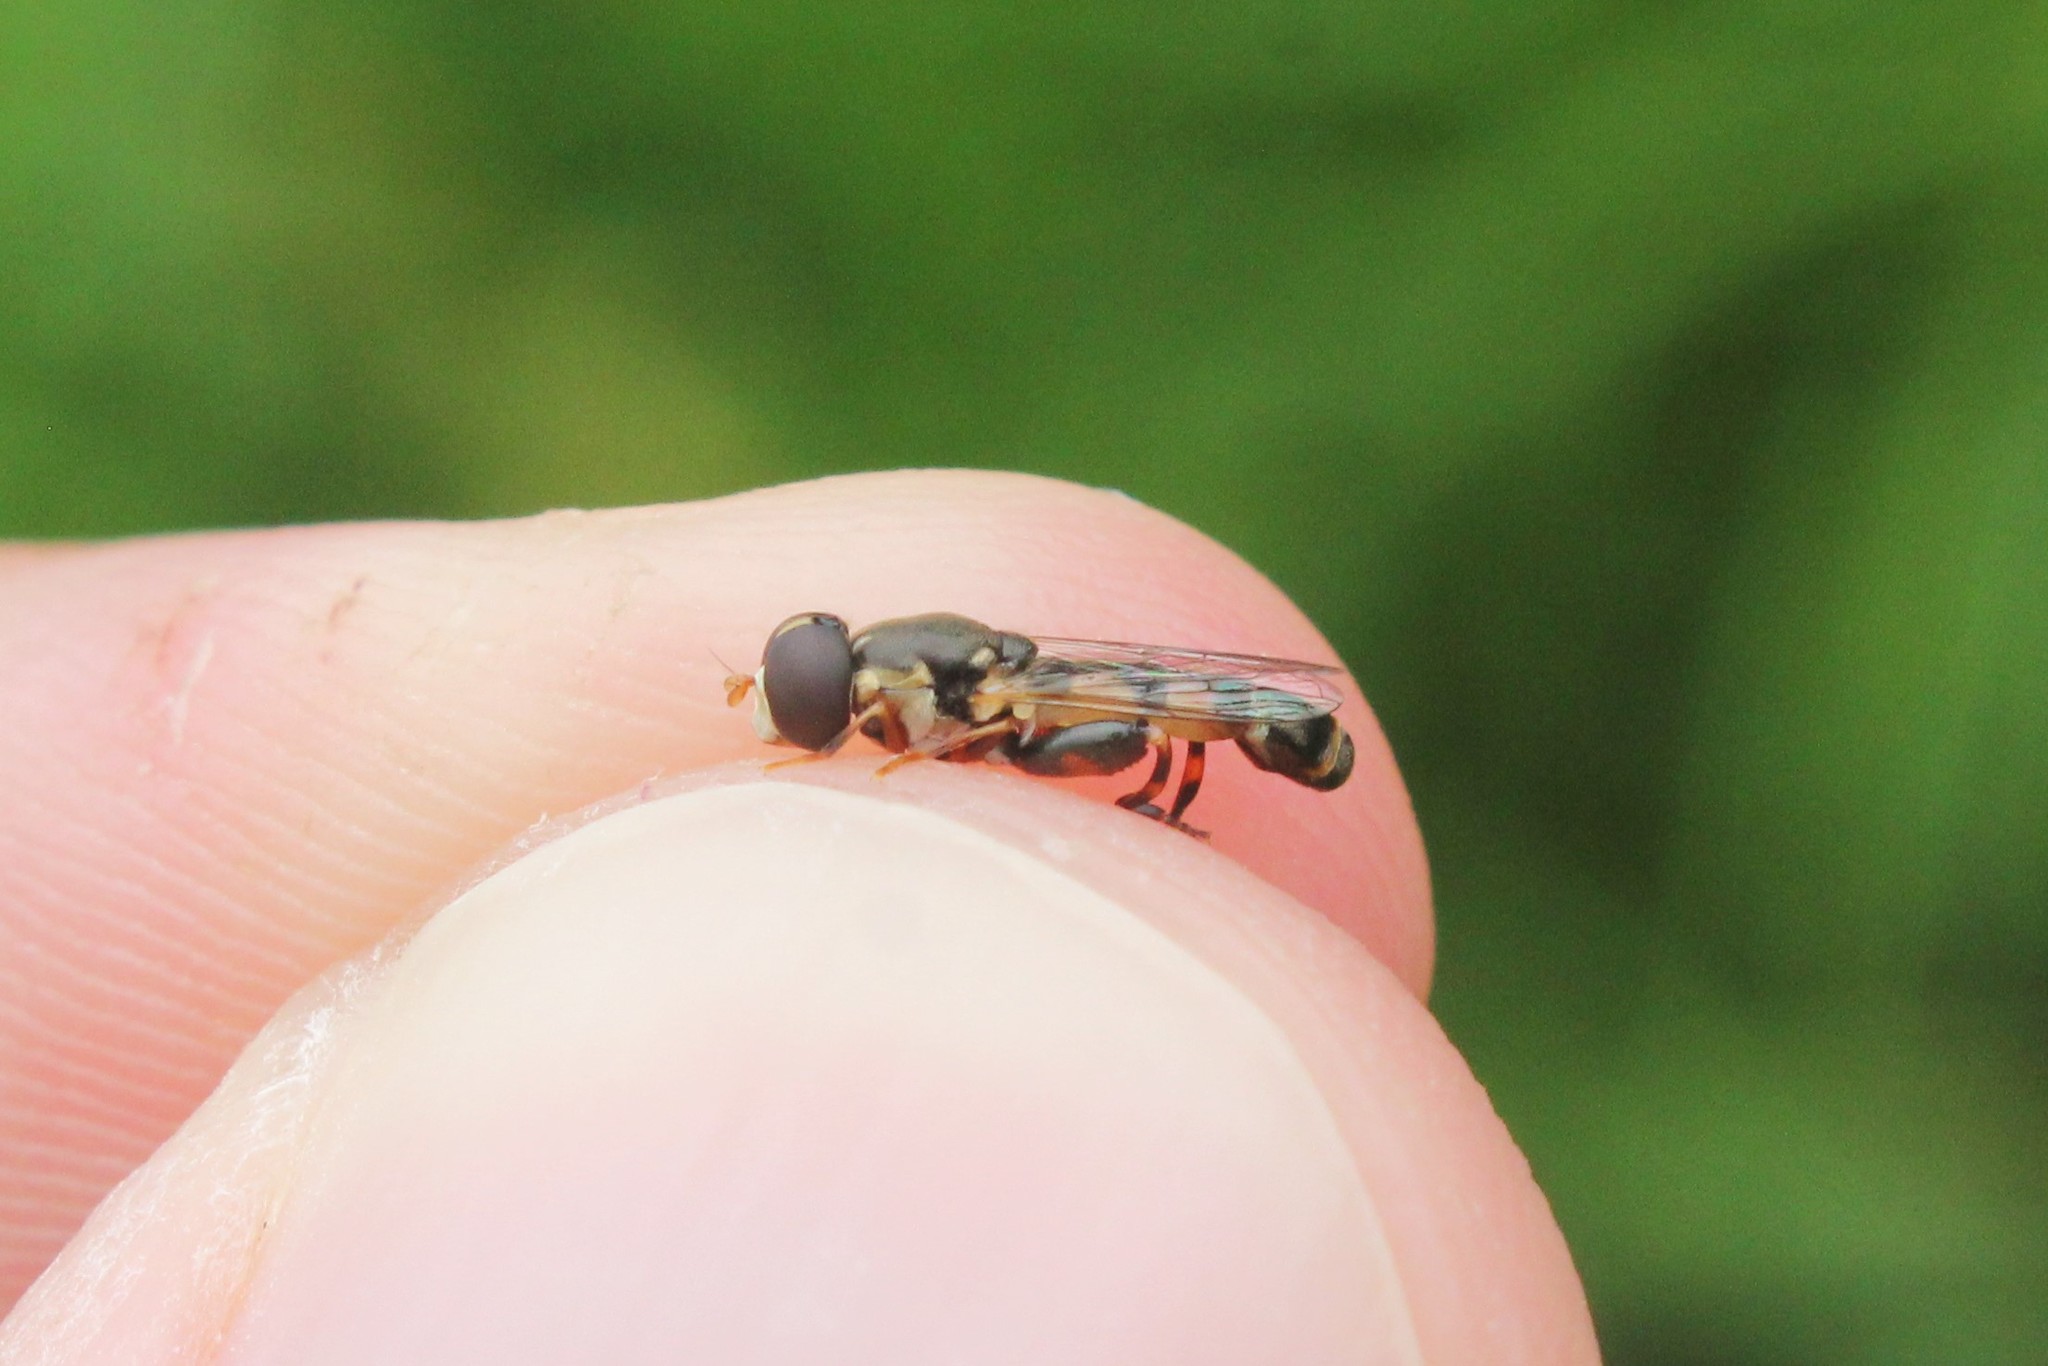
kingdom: Animalia
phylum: Arthropoda
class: Insecta
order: Diptera
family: Syrphidae
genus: Syritta
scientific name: Syritta pipiens
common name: Hover fly
